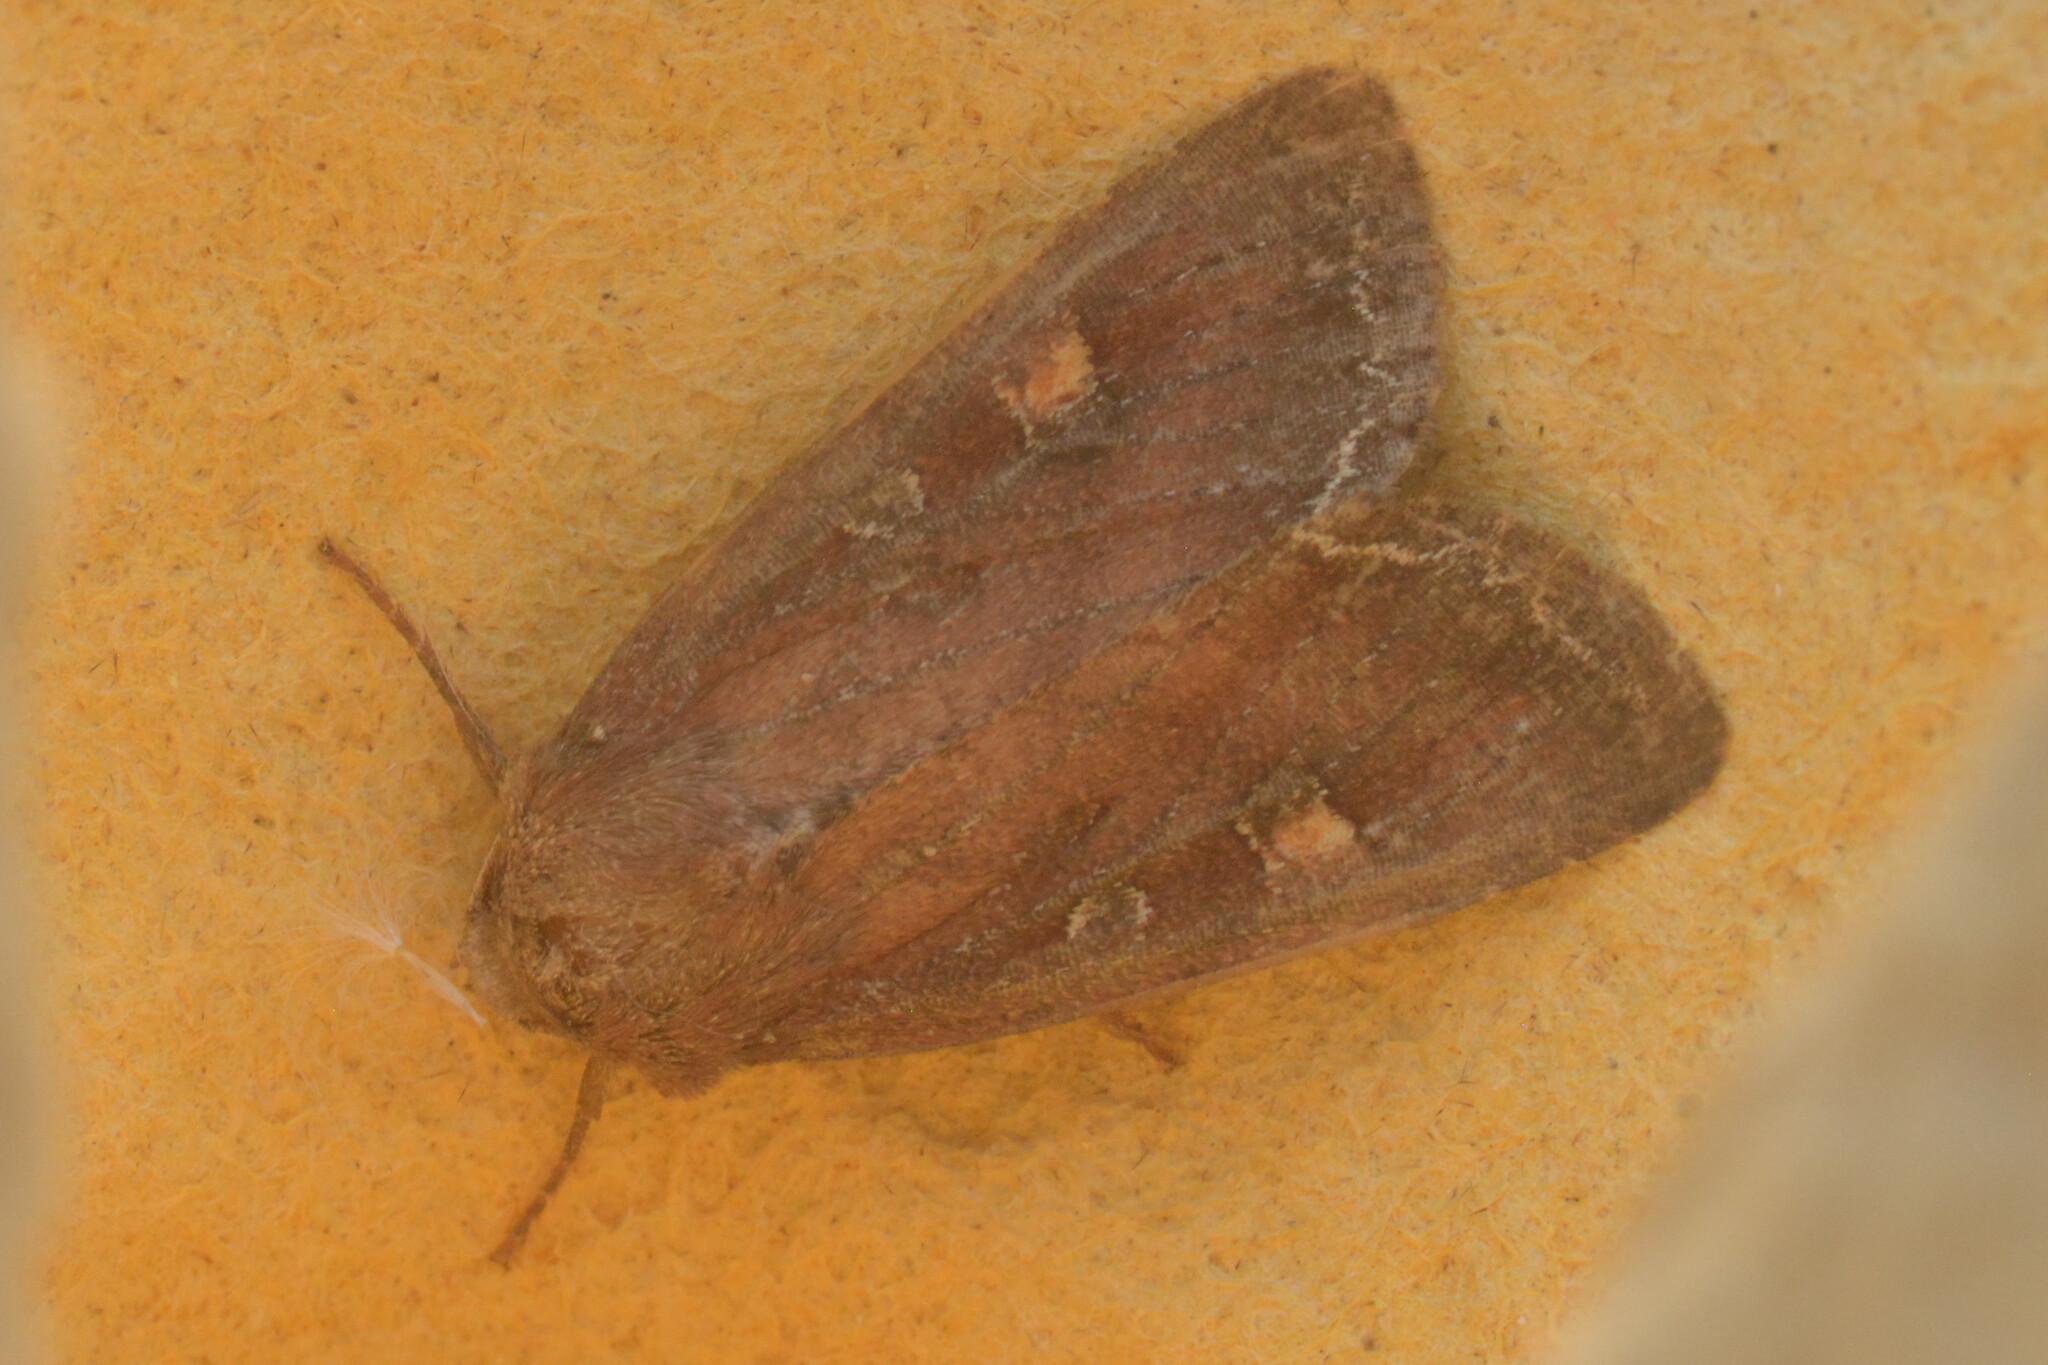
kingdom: Animalia
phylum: Arthropoda
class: Insecta
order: Lepidoptera
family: Noctuidae
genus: Lacanobia
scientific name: Lacanobia oleracea
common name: Bright-line brown-eye
